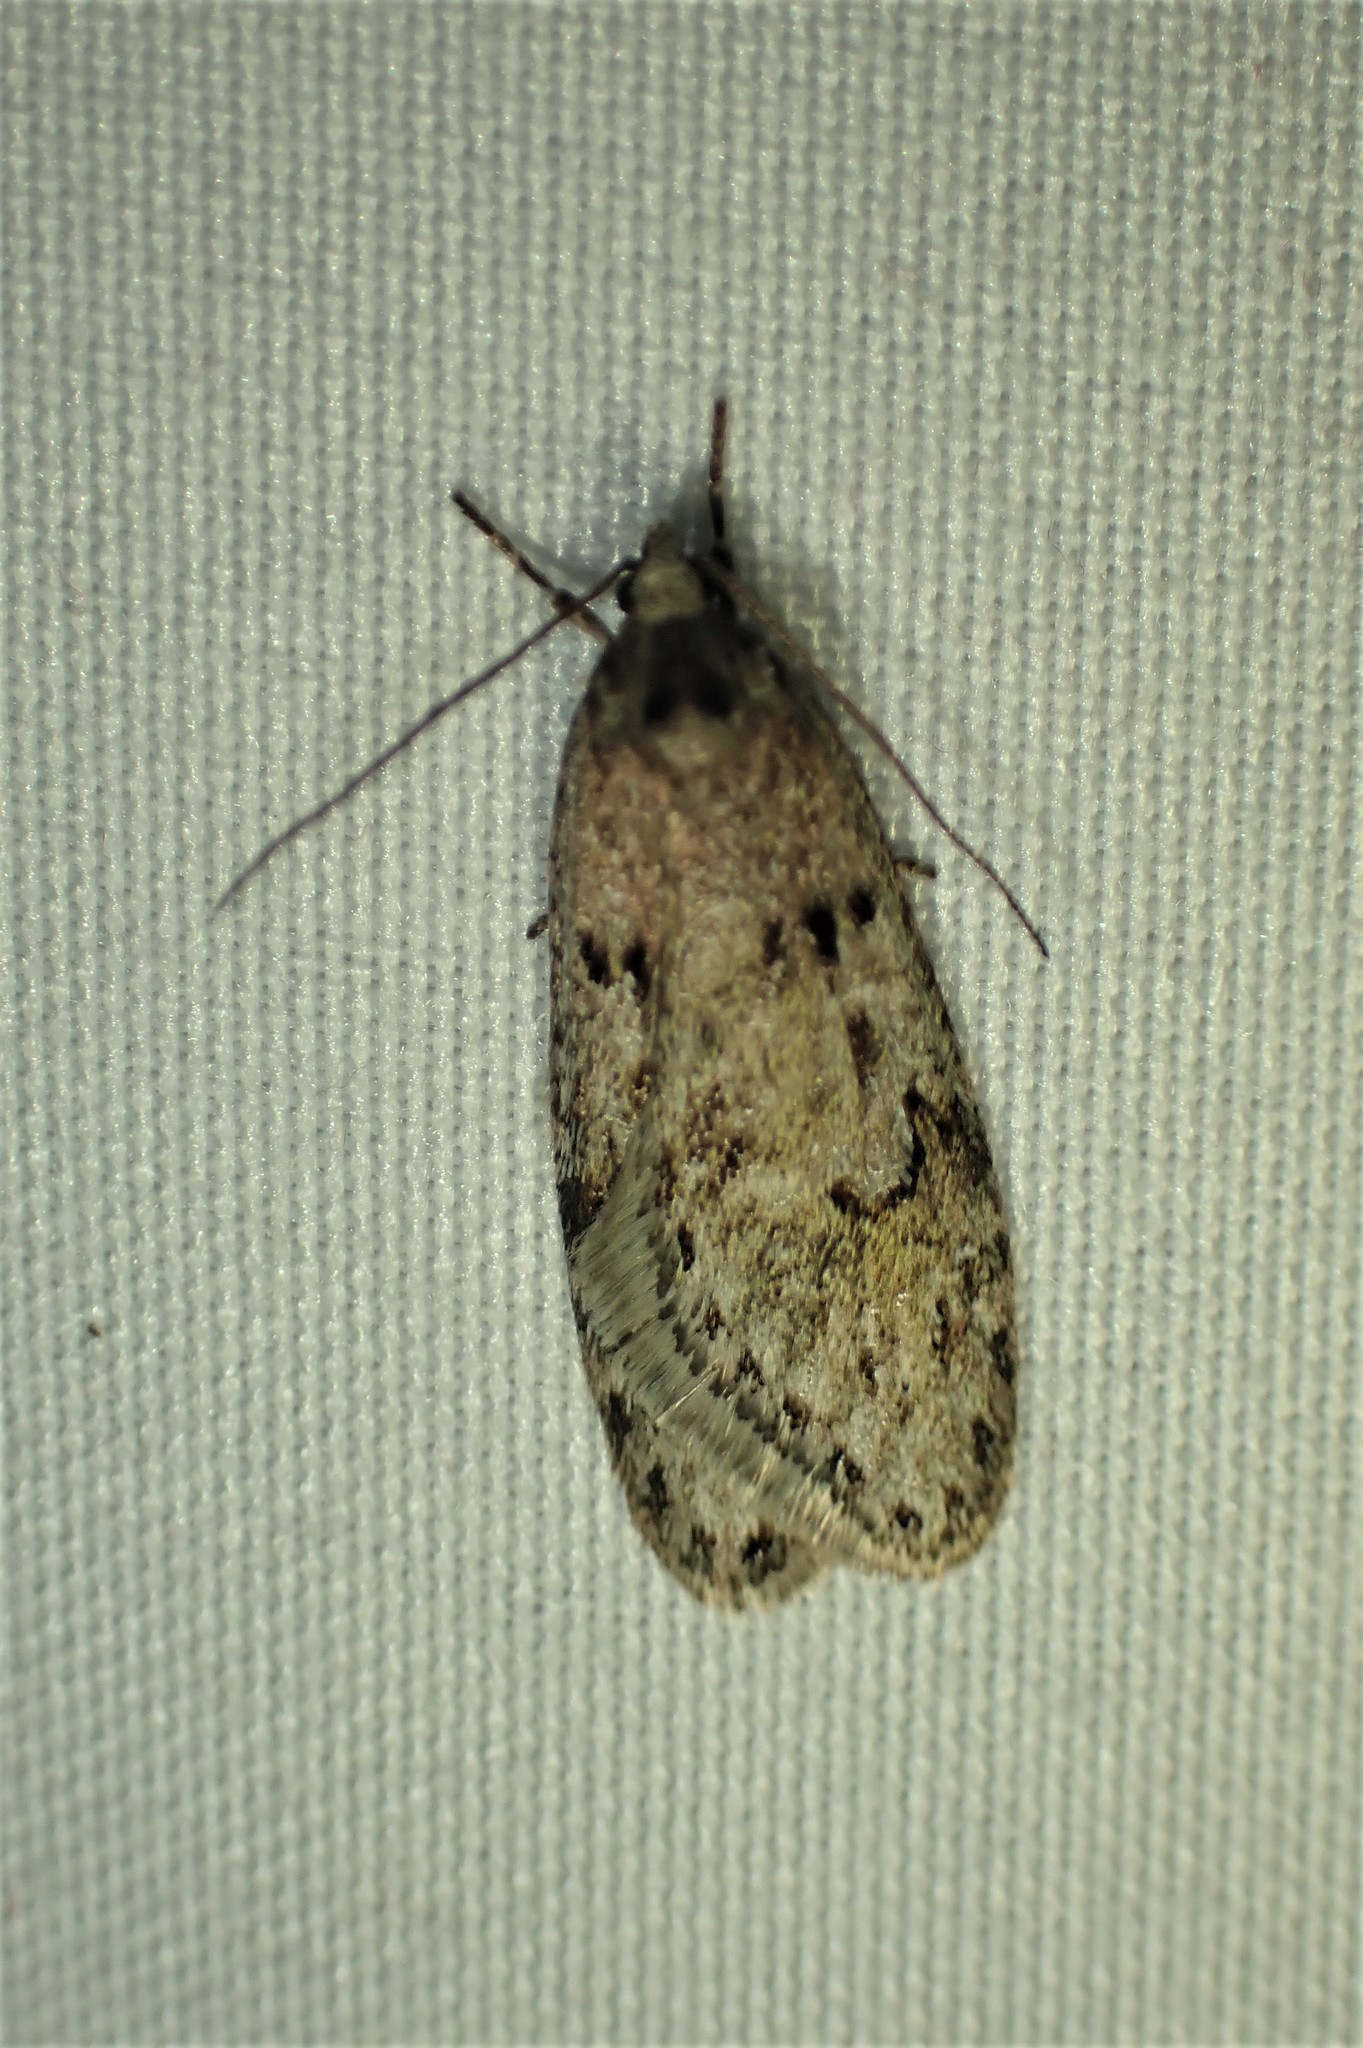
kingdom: Animalia
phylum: Arthropoda
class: Insecta
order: Lepidoptera
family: Depressariidae
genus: Semioscopis
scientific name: Semioscopis megamicrella
